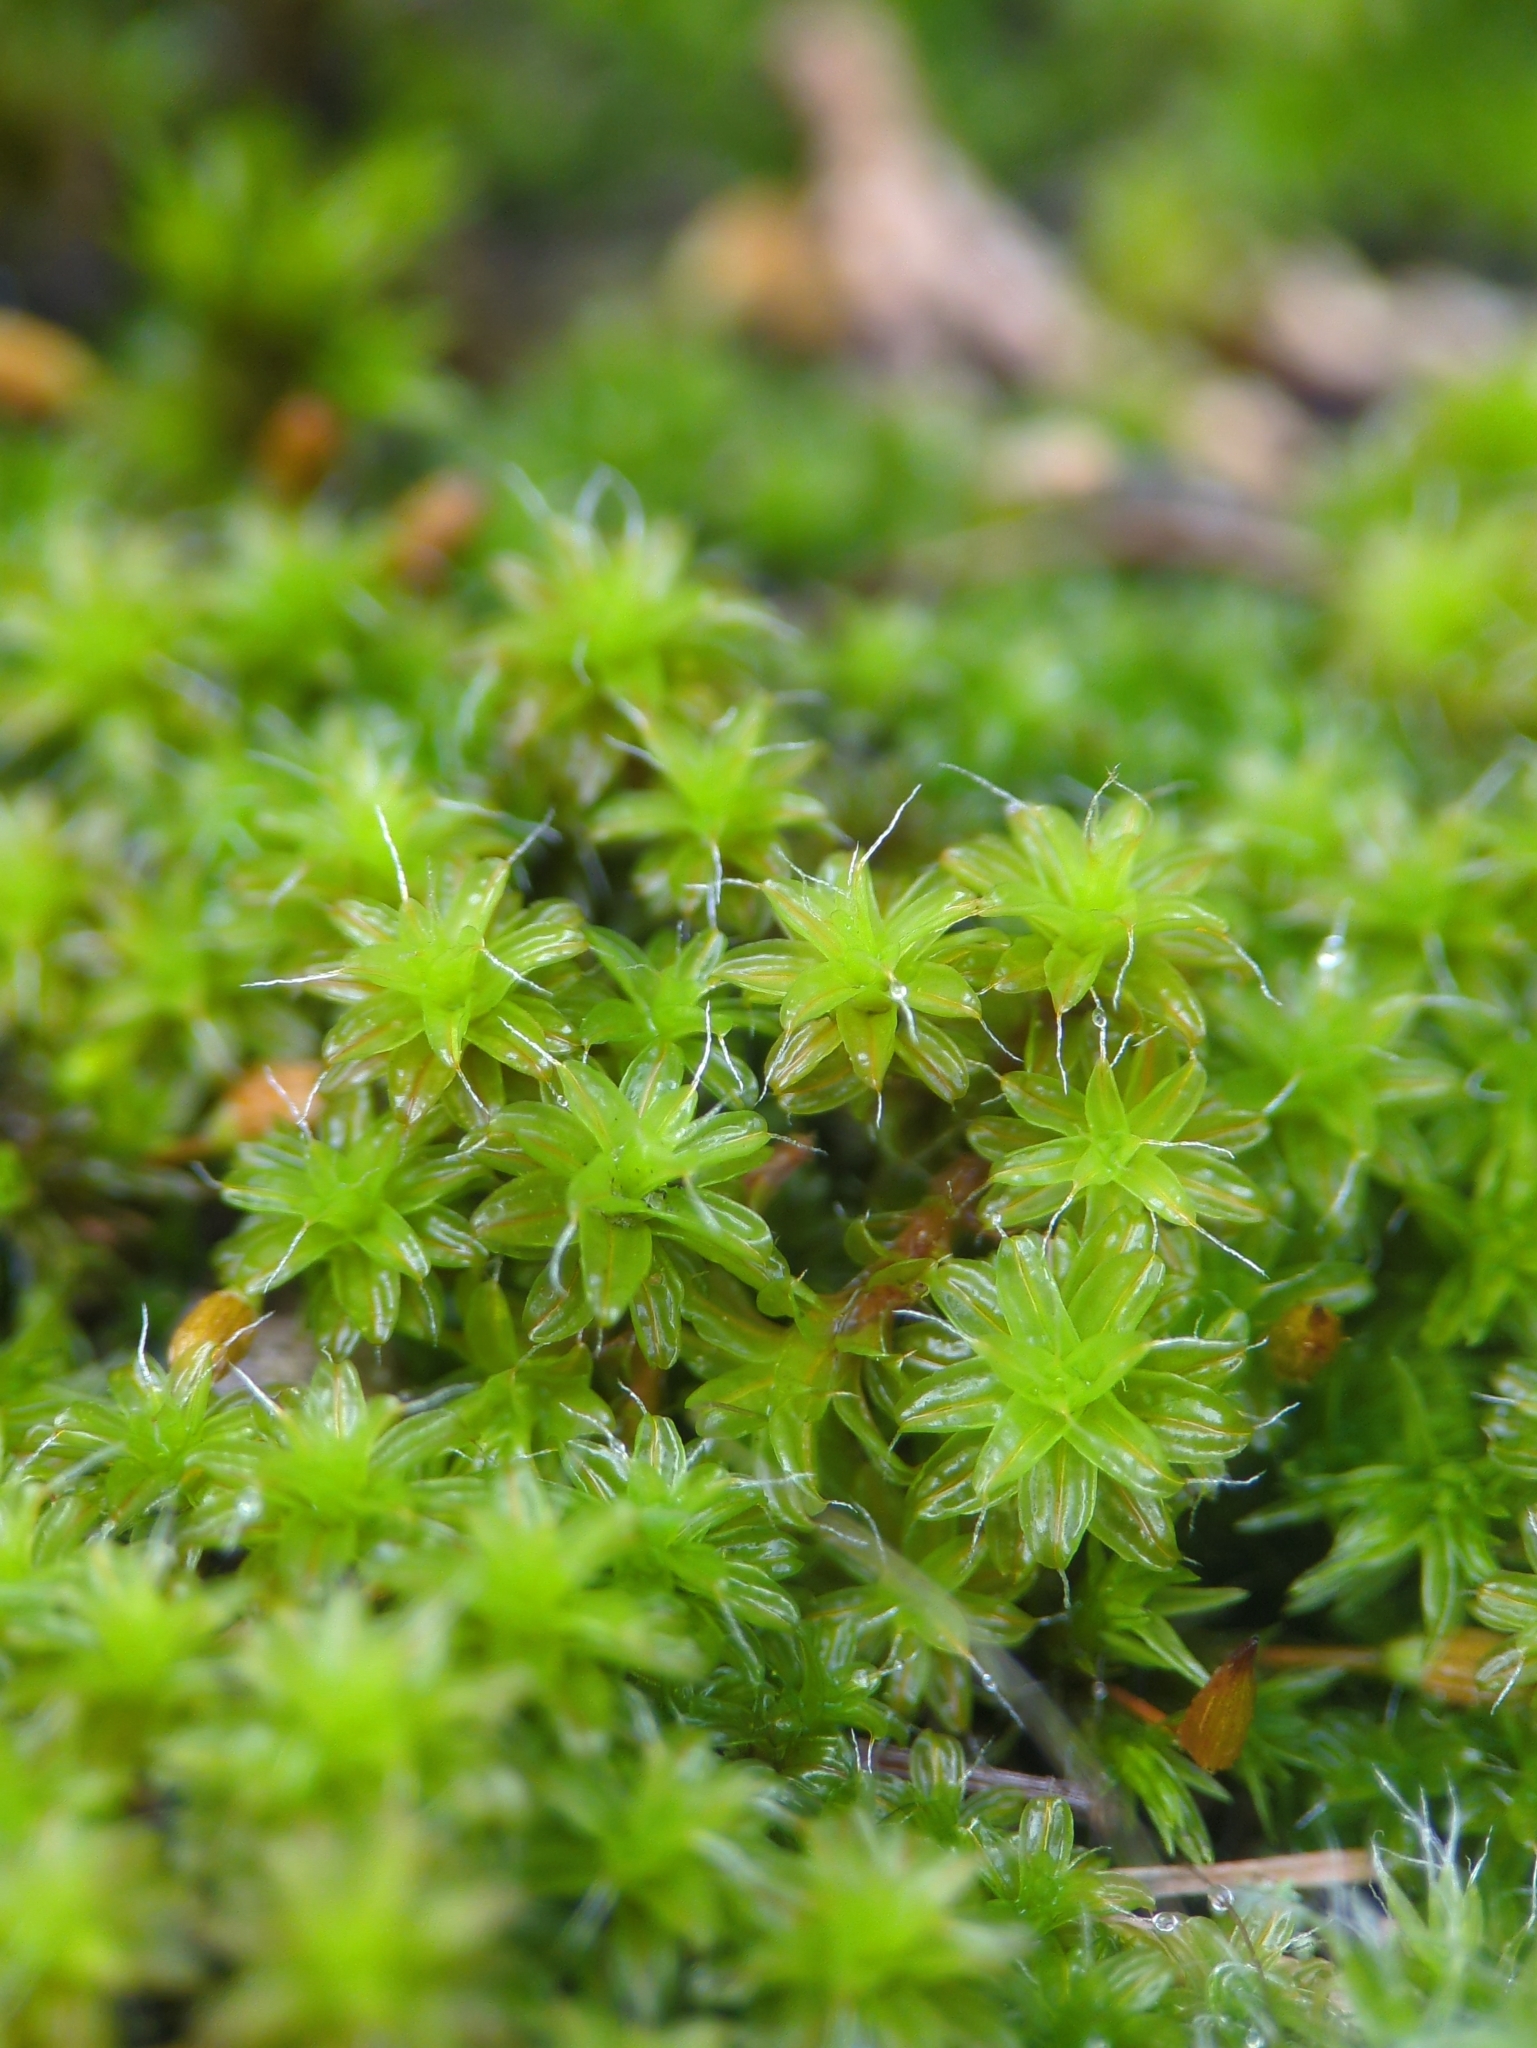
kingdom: Plantae
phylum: Bryophyta
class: Bryopsida
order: Pottiales
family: Pottiaceae
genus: Syntrichia
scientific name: Syntrichia ruralis
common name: Sidewalk screw moss
